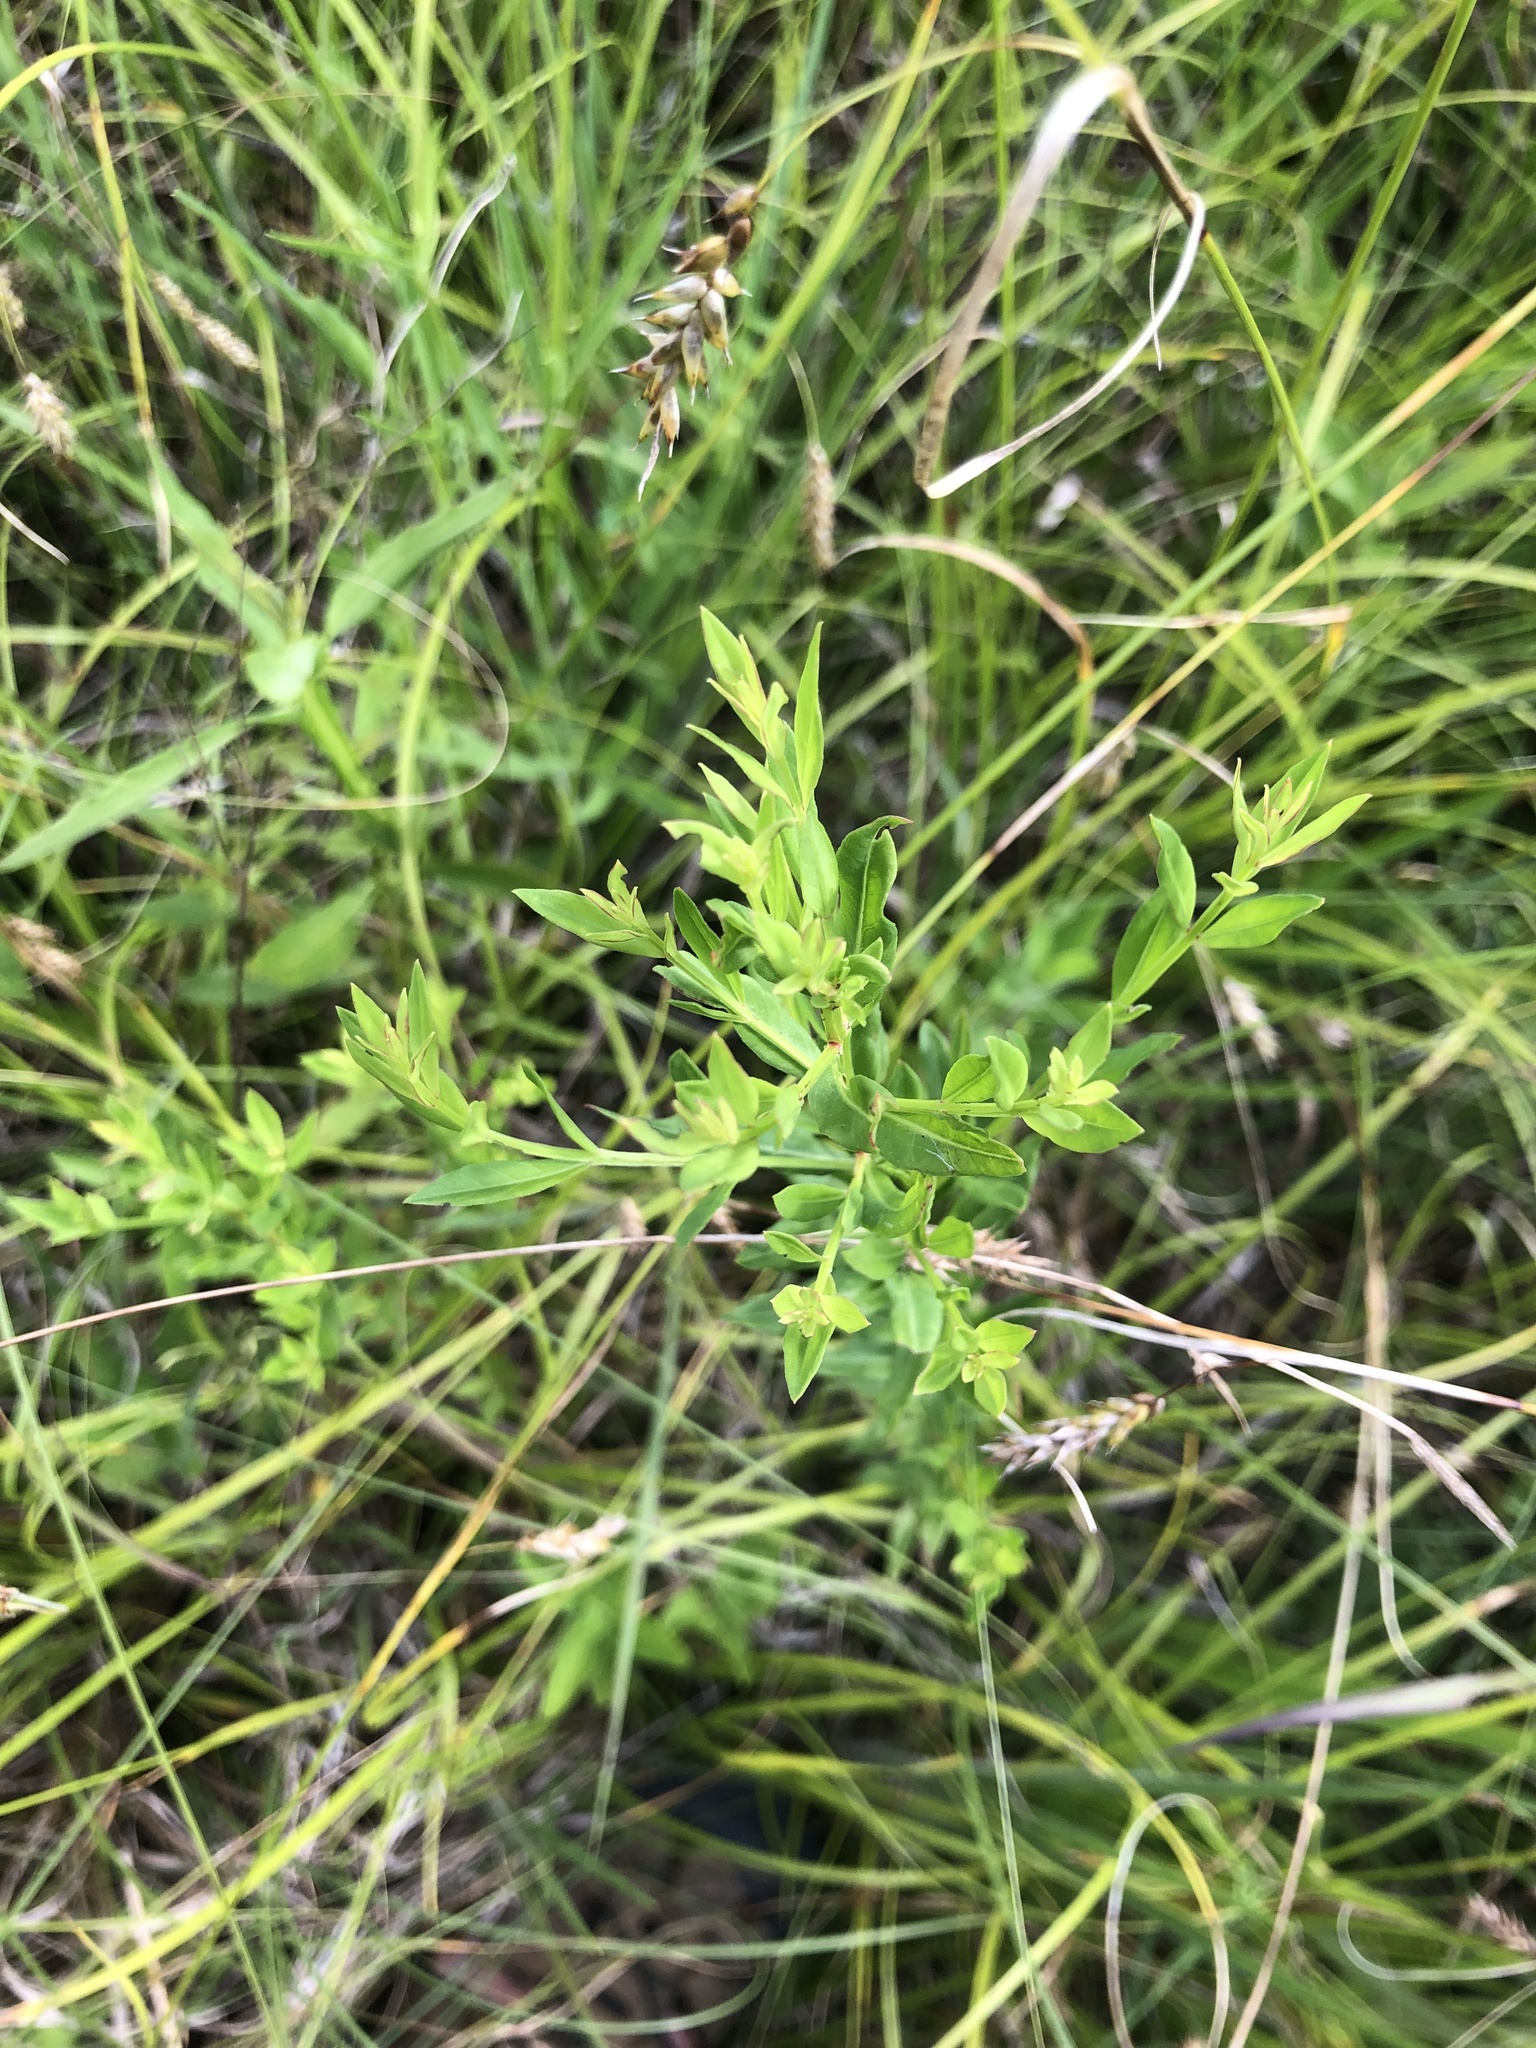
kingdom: Plantae
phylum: Tracheophyta
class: Magnoliopsida
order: Myrtales
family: Lythraceae
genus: Lythrum
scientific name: Lythrum alatum
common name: Winged loosestrife
